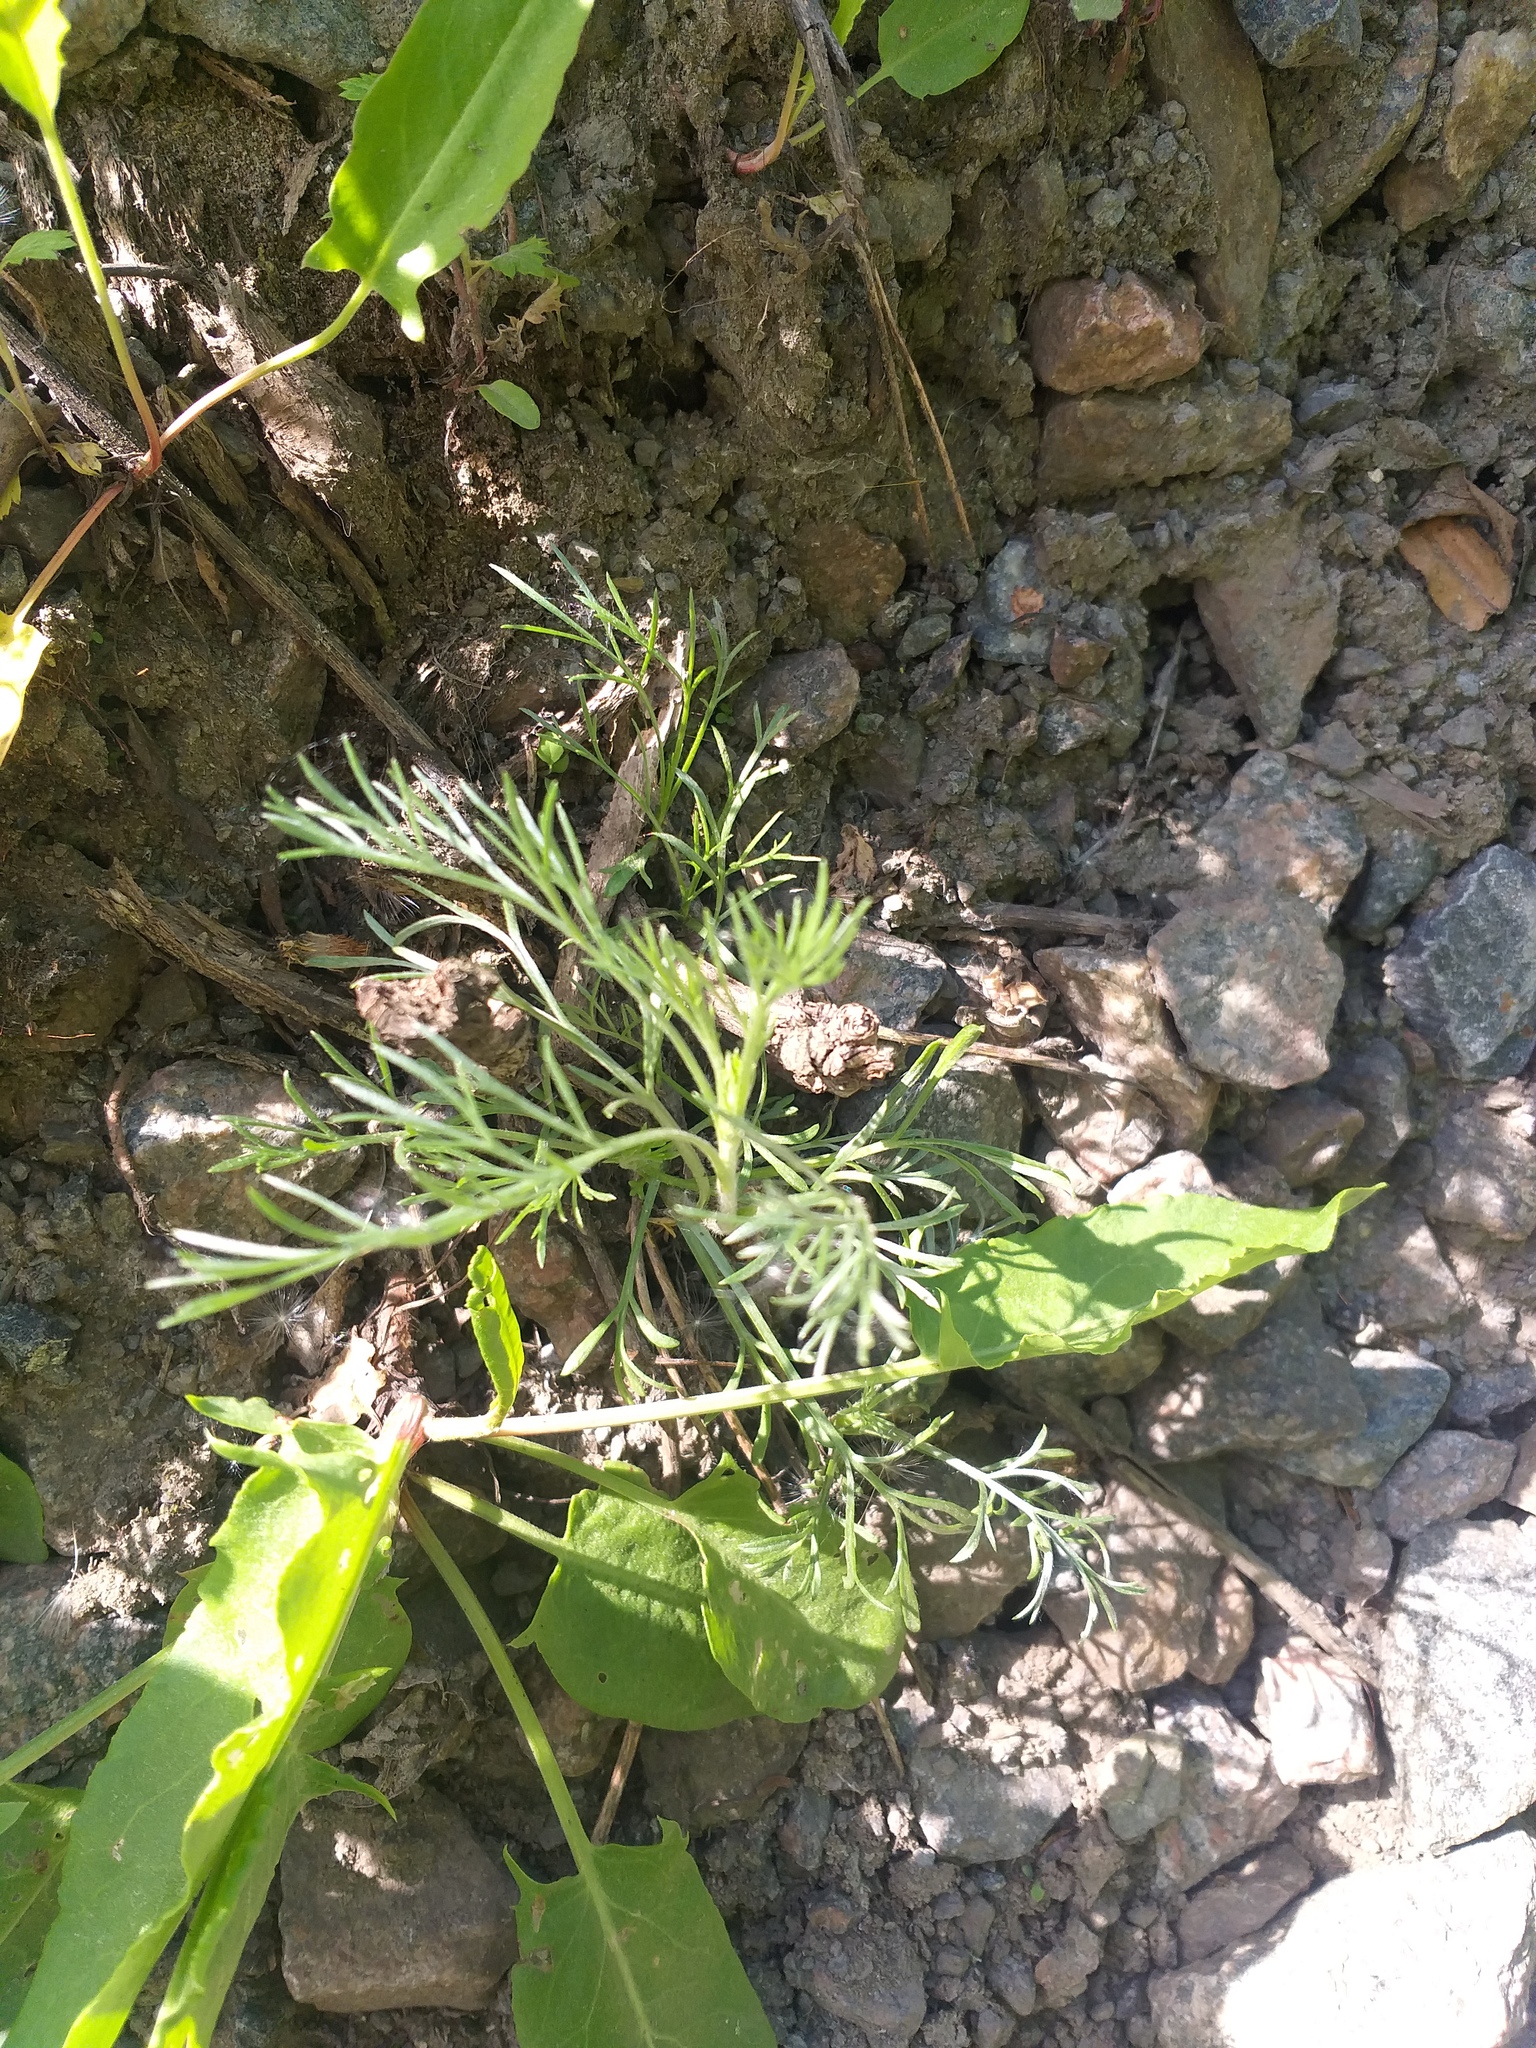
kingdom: Plantae
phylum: Tracheophyta
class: Magnoliopsida
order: Asterales
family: Asteraceae
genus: Artemisia
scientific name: Artemisia campestris
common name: Field wormwood
